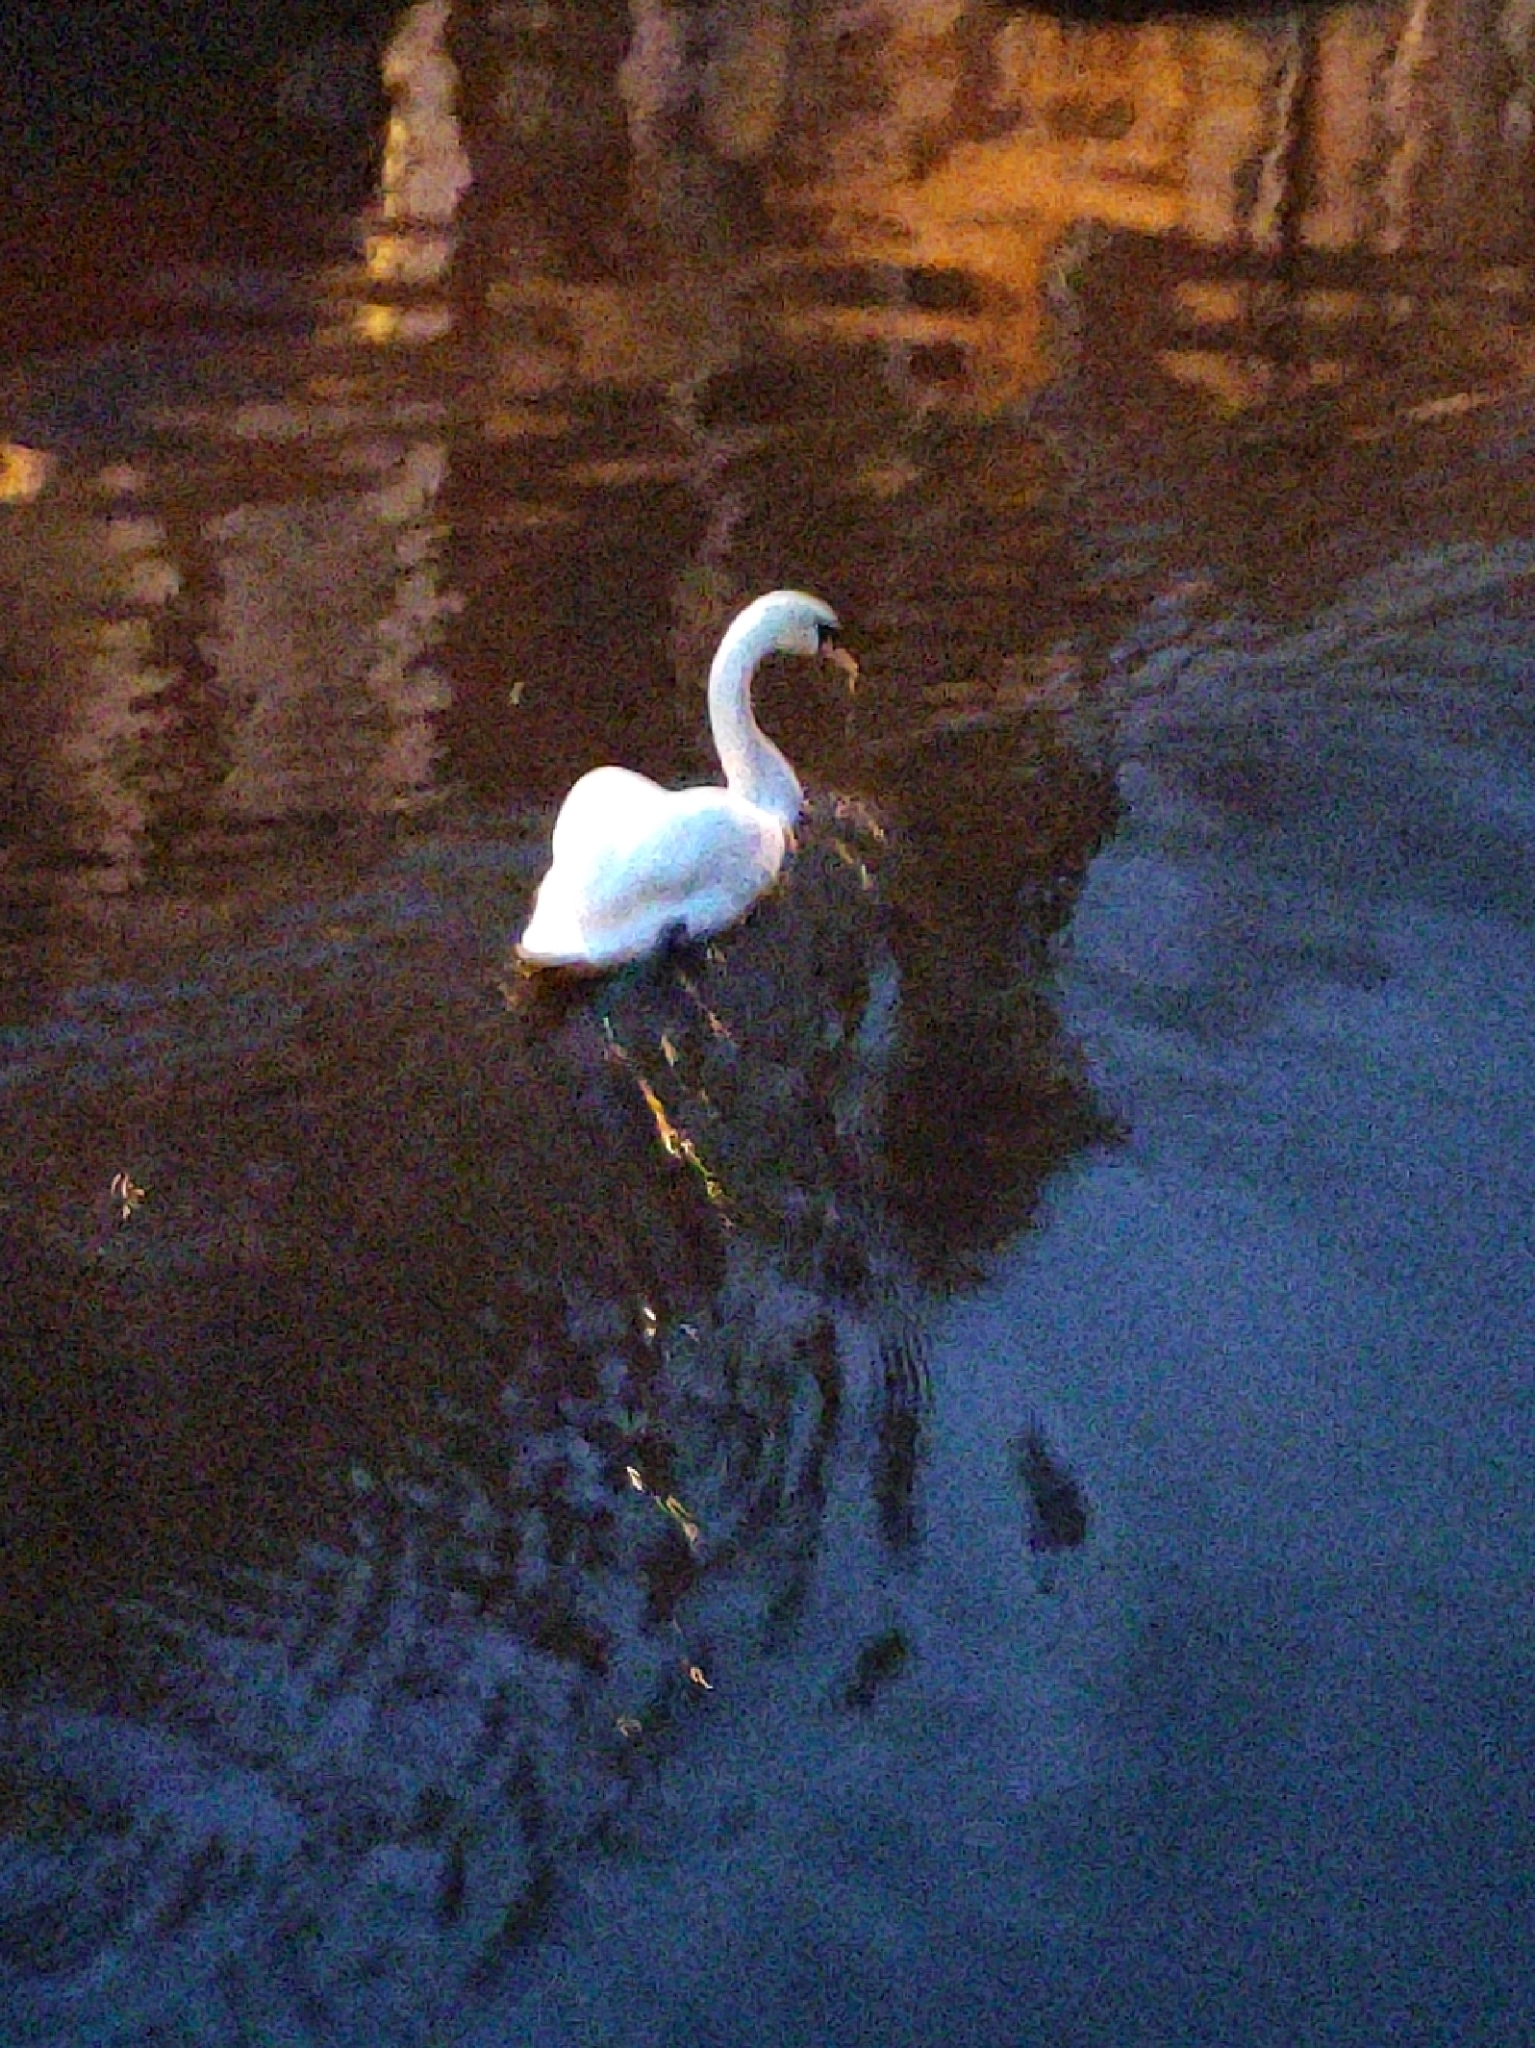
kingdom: Animalia
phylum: Chordata
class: Aves
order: Anseriformes
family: Anatidae
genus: Cygnus
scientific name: Cygnus olor
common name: Mute swan
